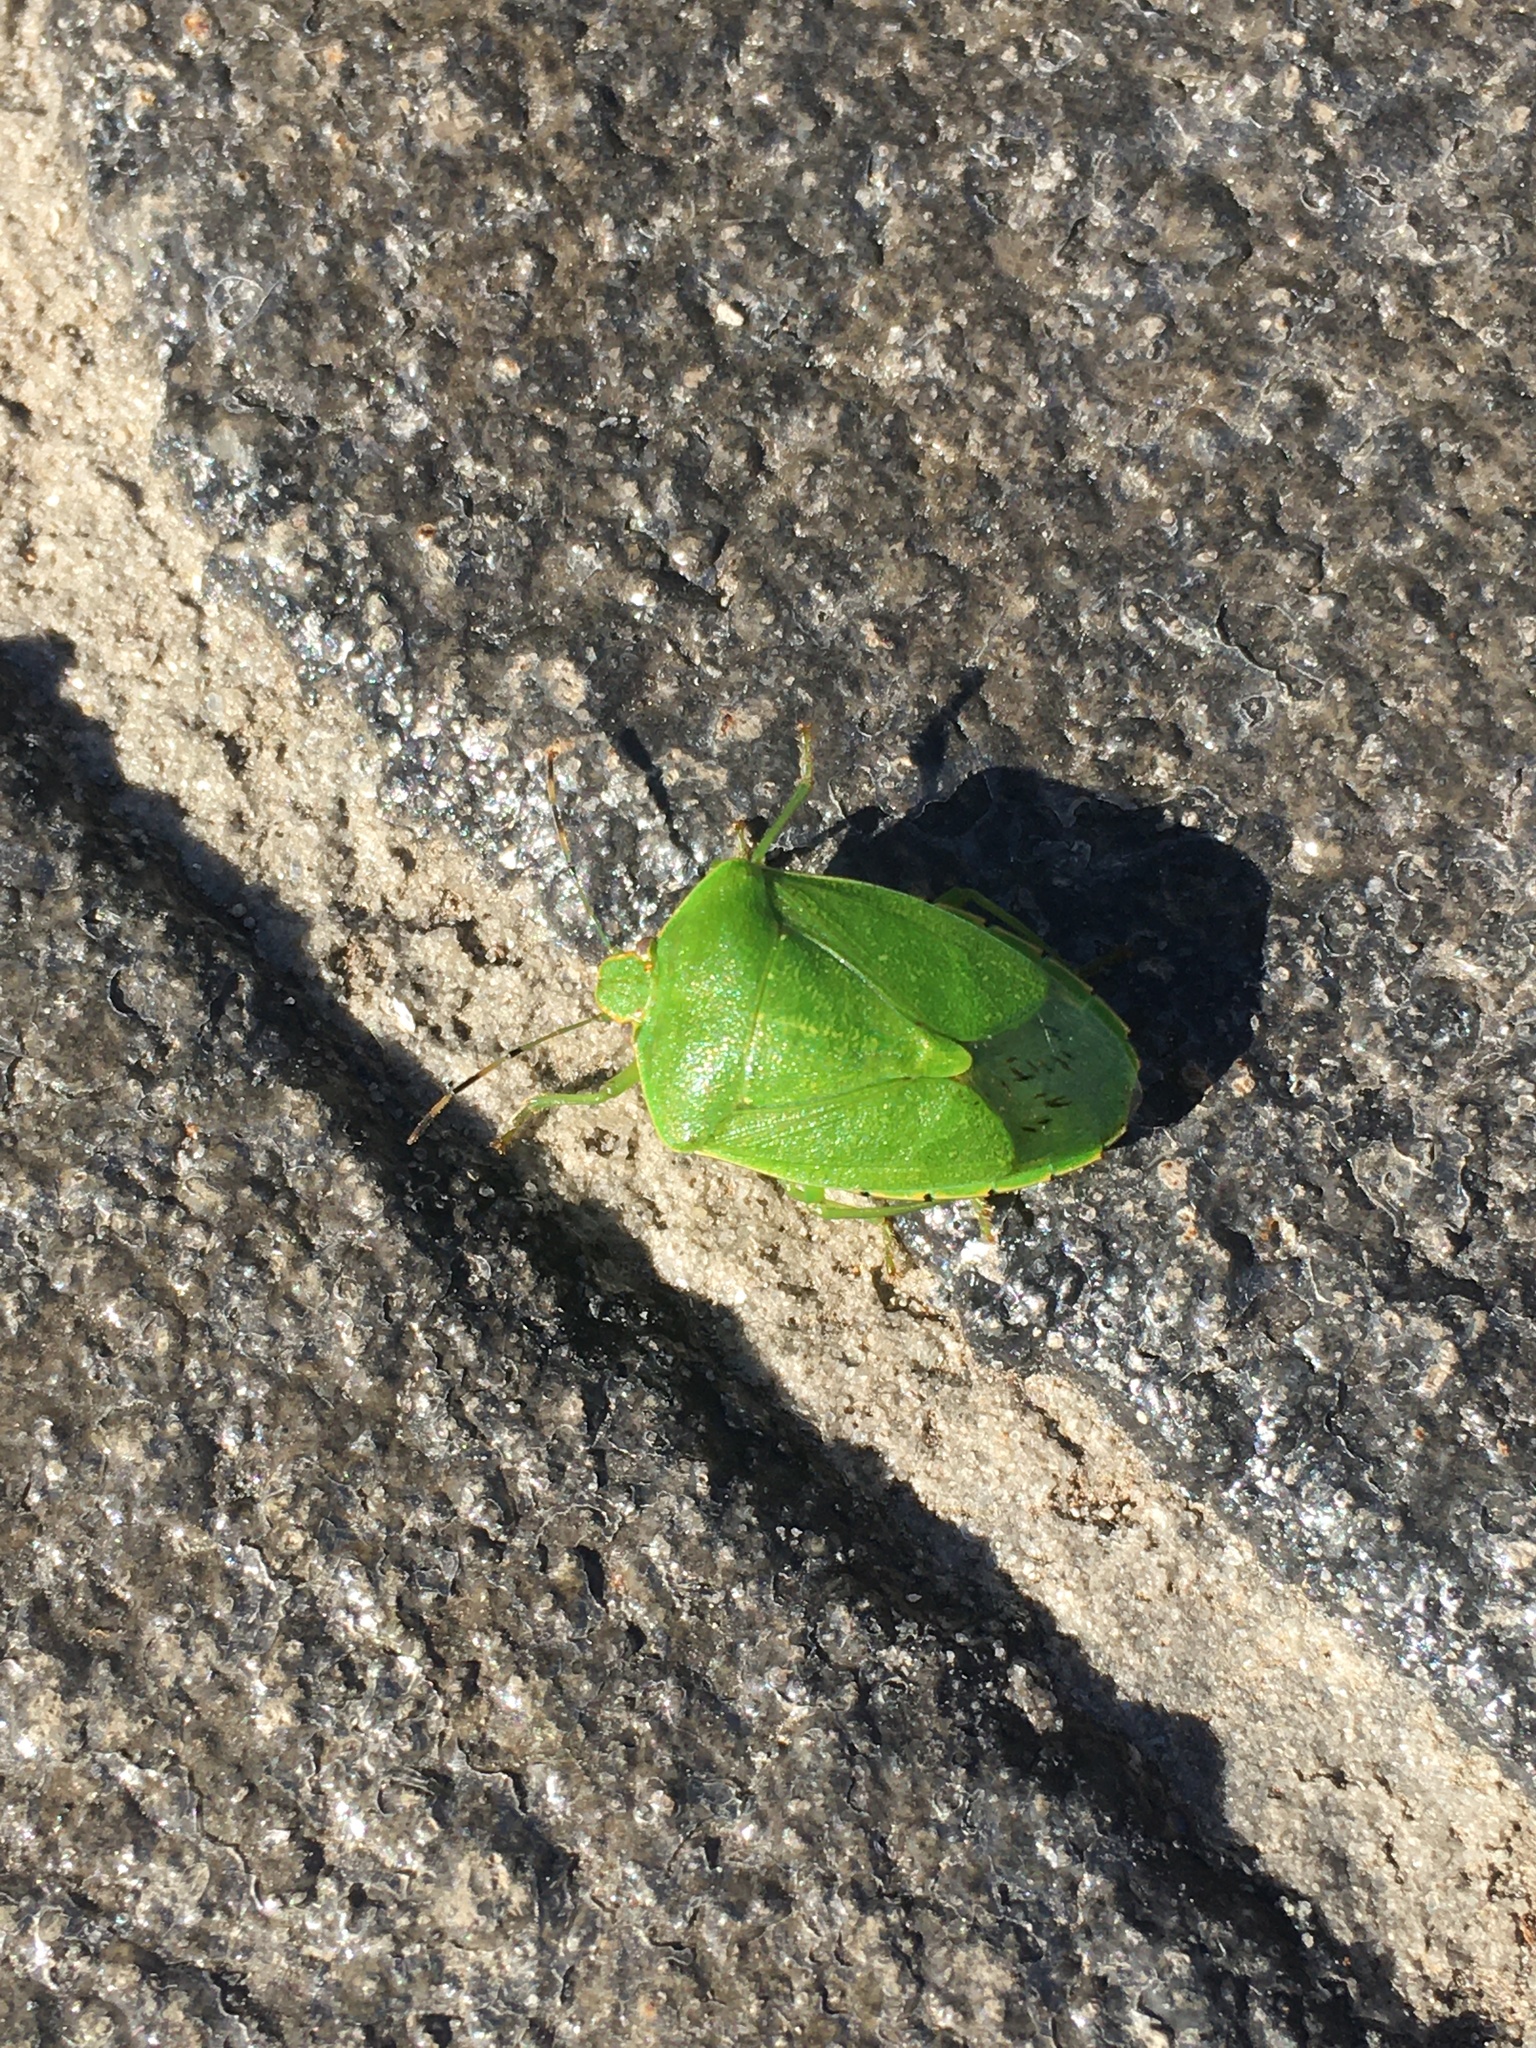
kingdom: Animalia
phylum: Arthropoda
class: Insecta
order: Hemiptera
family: Pentatomidae
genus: Chinavia
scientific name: Chinavia hilaris
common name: Green stink bug
